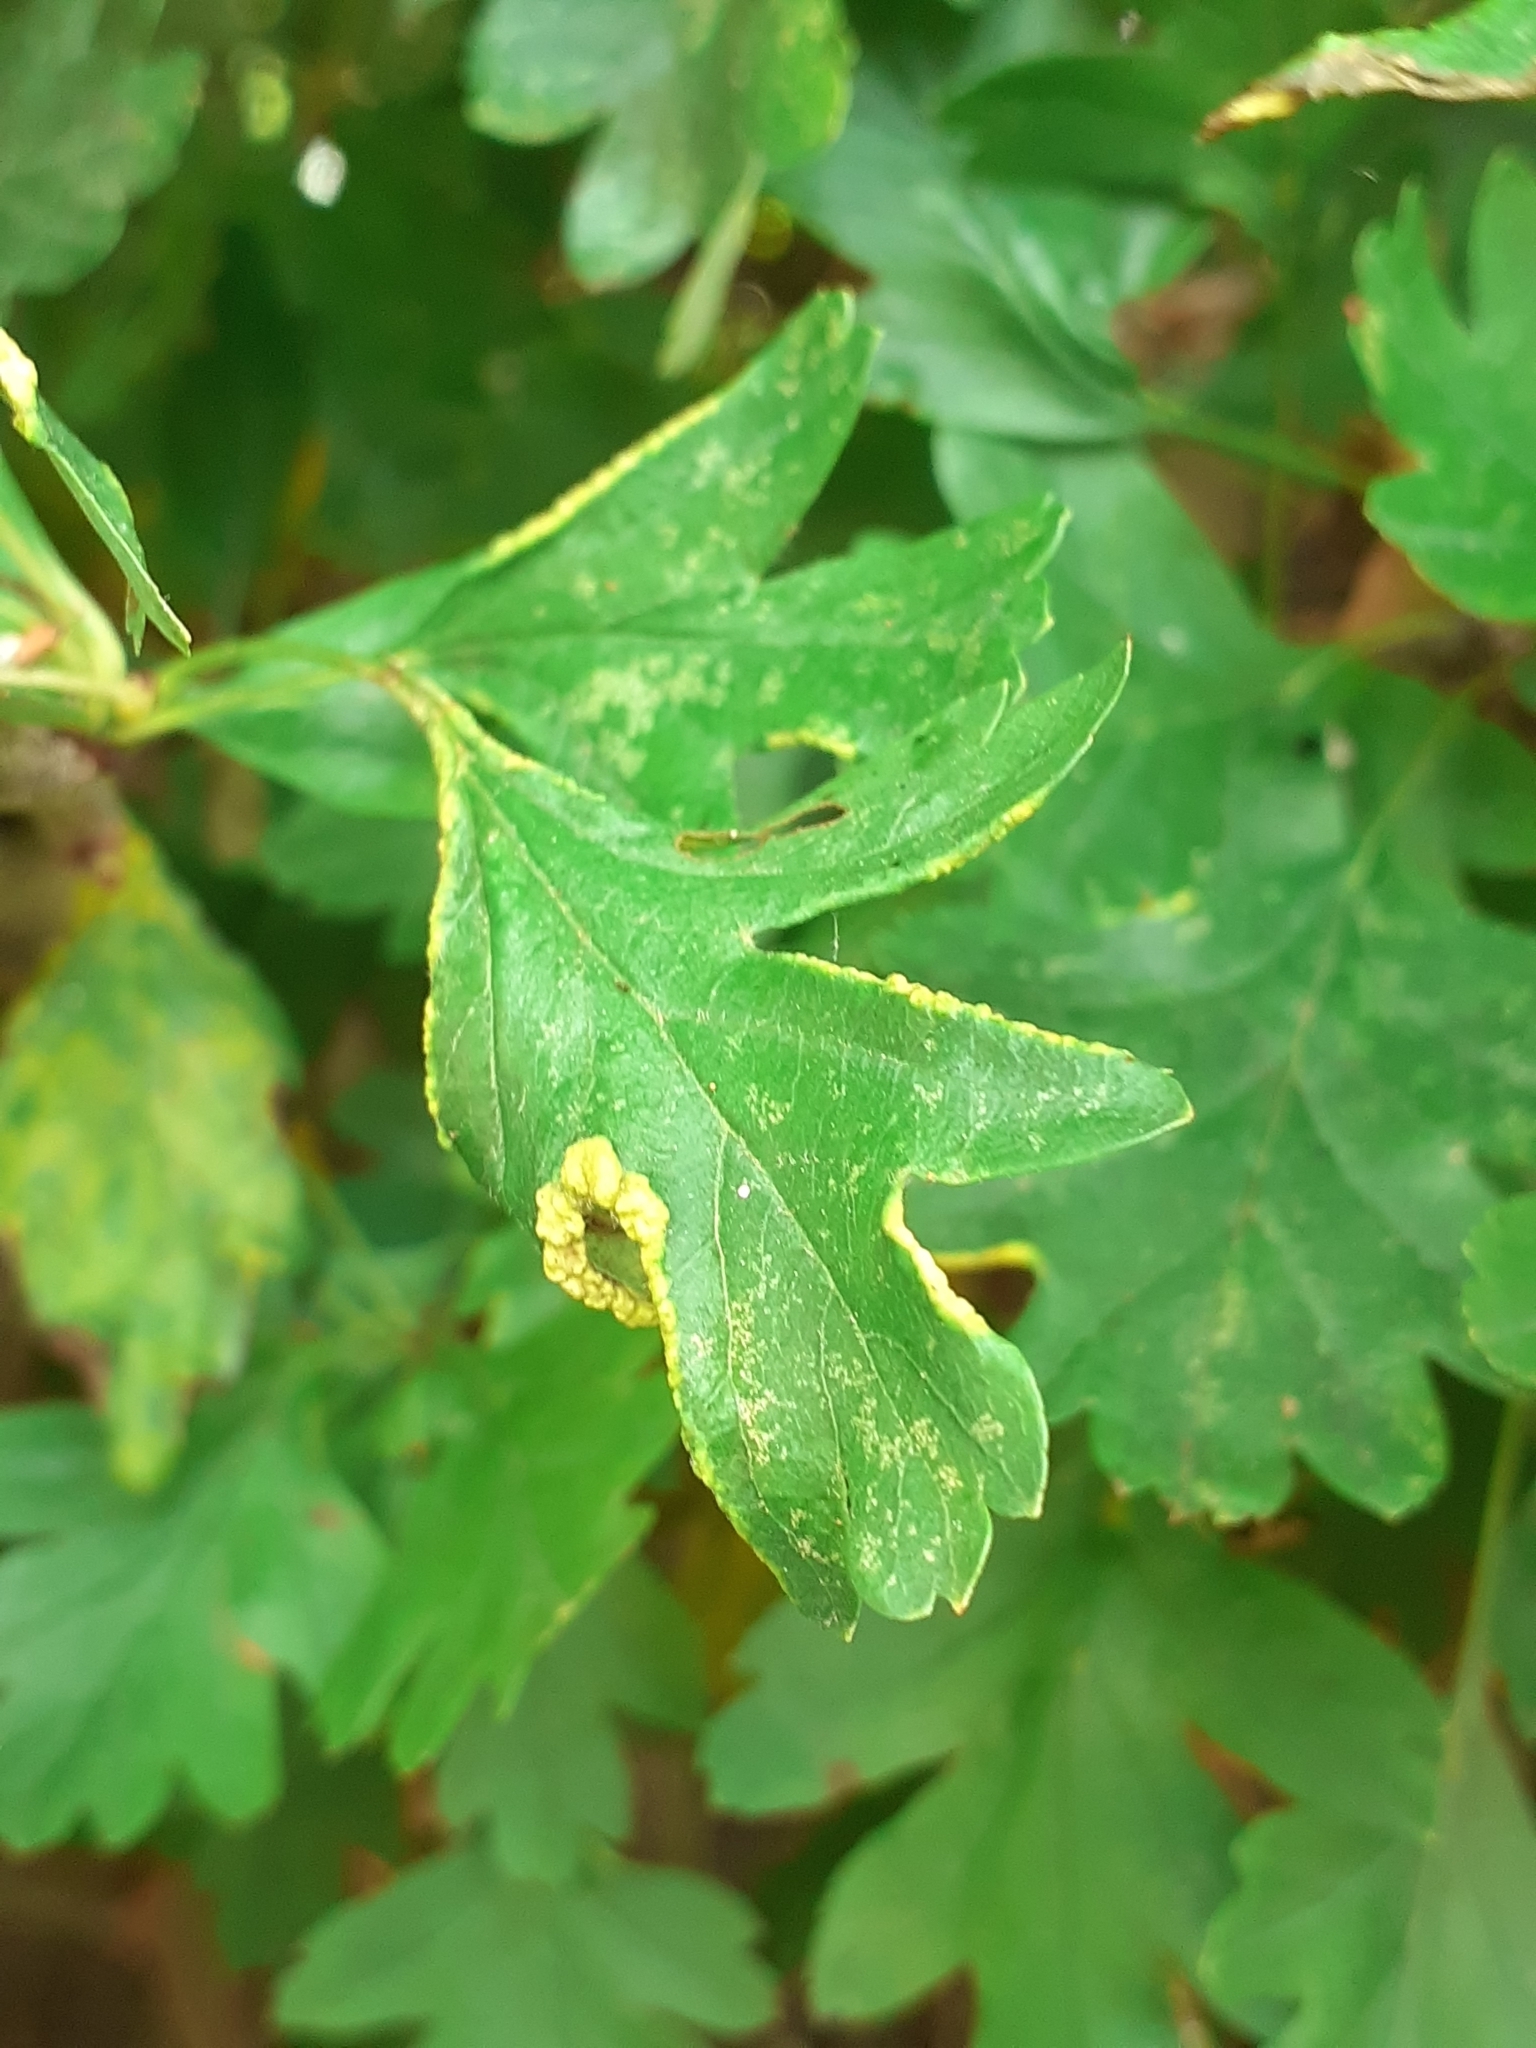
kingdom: Animalia
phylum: Arthropoda
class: Arachnida
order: Trombidiformes
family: Eriophyidae
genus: Phyllocoptes
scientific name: Phyllocoptes goniothorax
